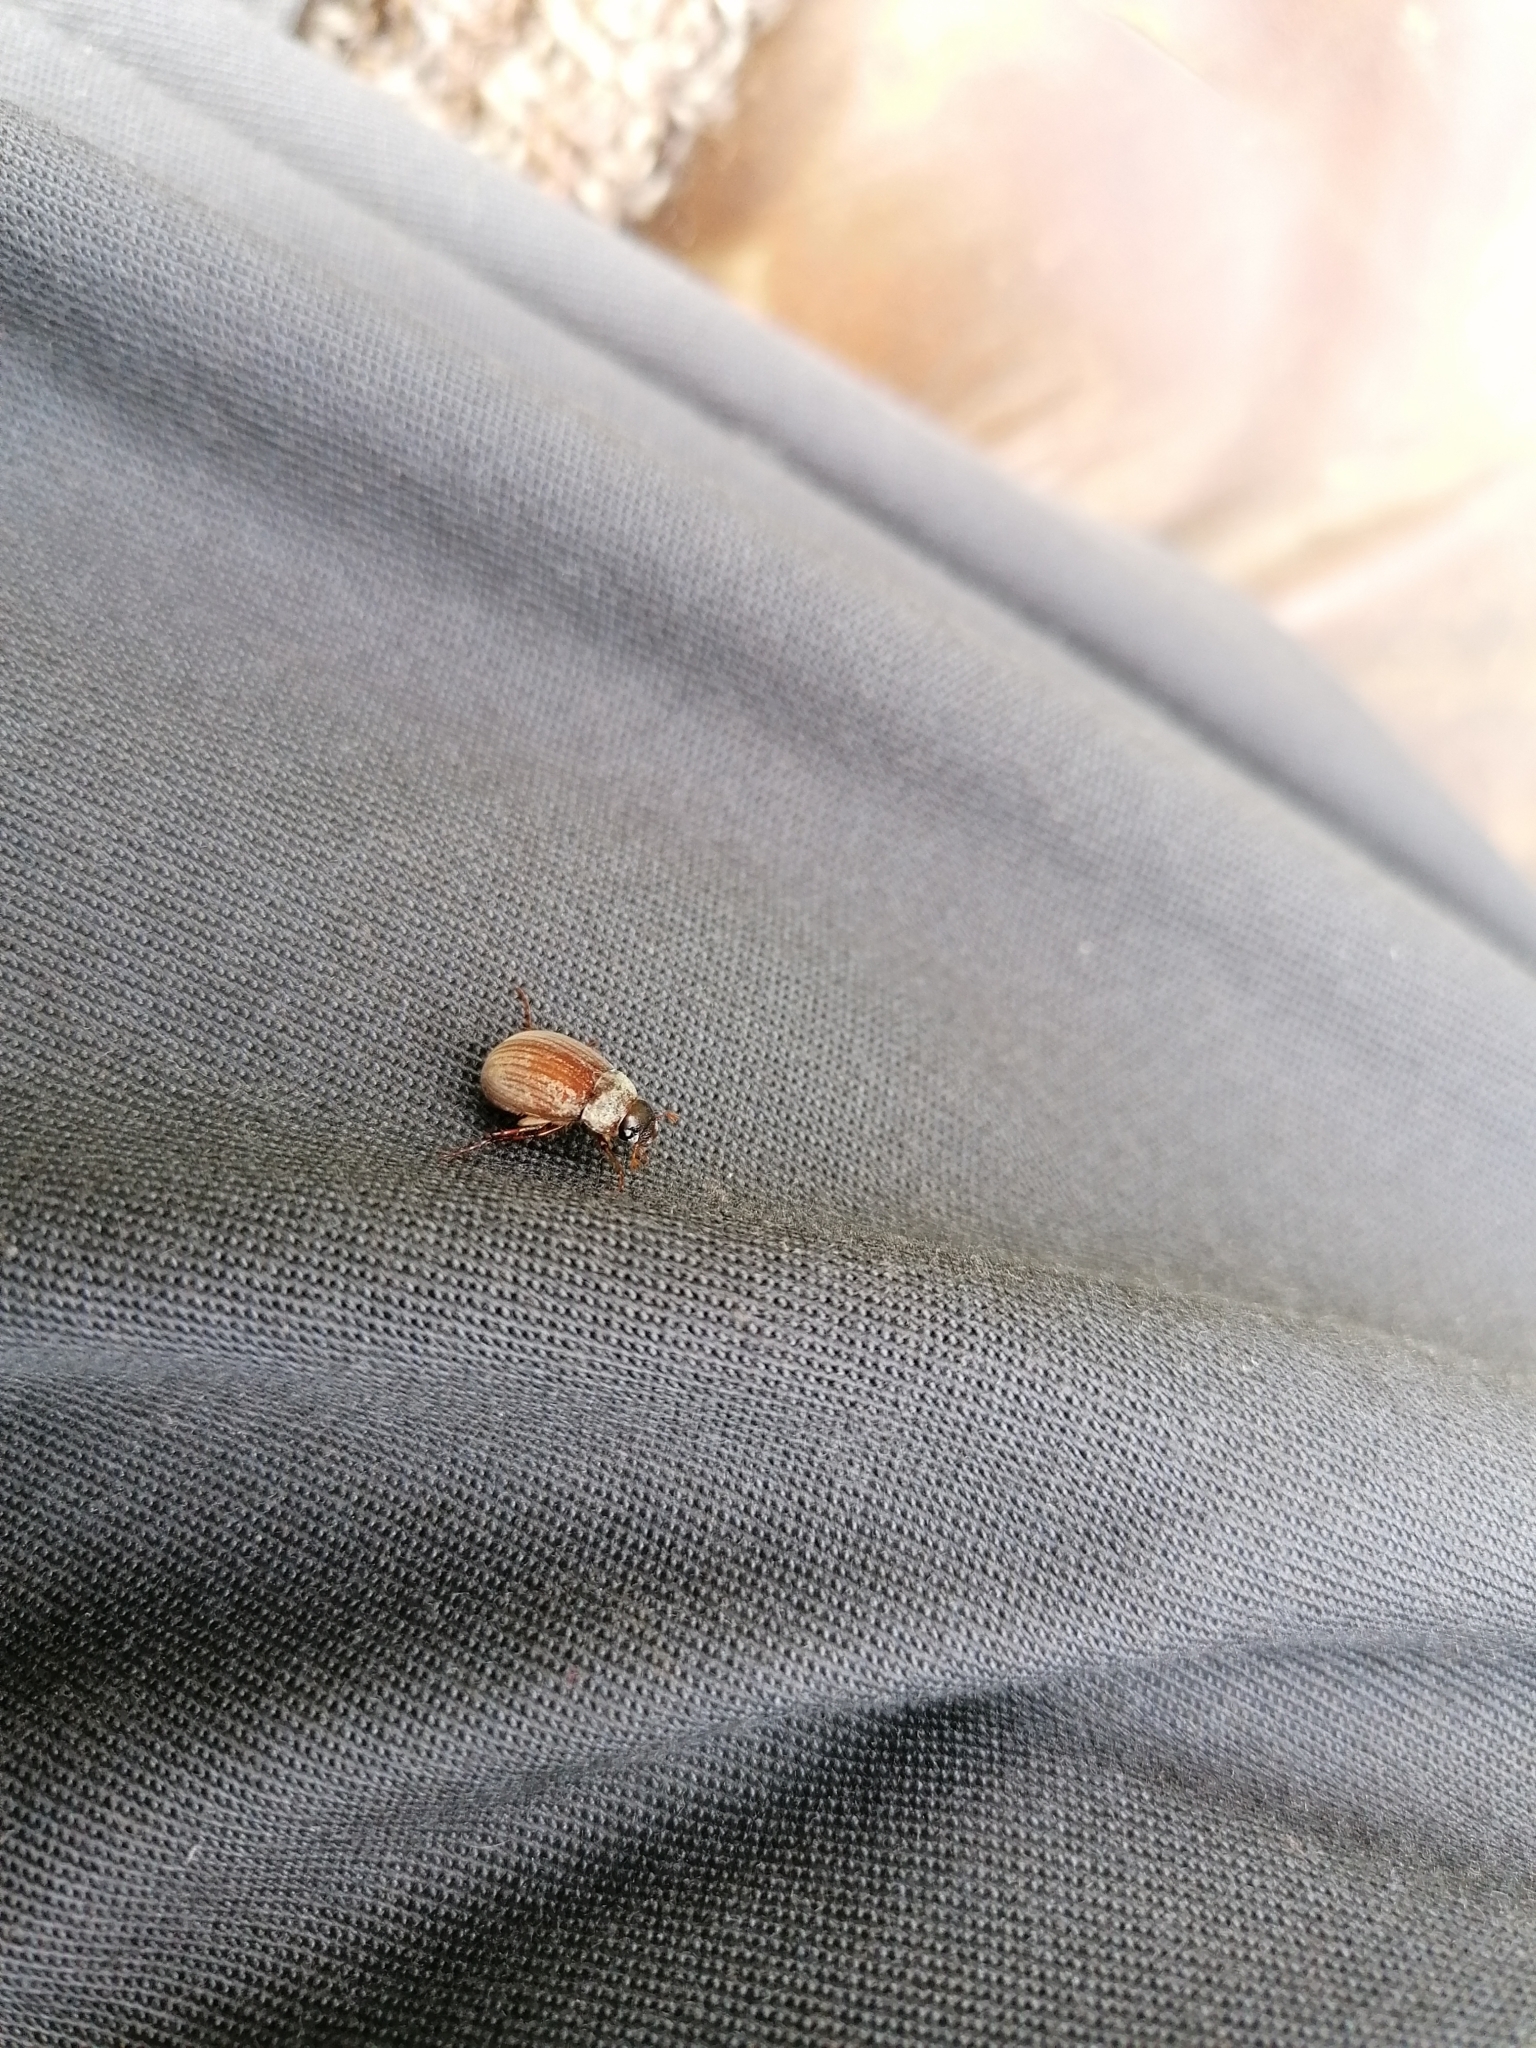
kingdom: Animalia
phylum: Arthropoda
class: Insecta
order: Coleoptera
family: Scarabaeidae
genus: Maladera
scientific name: Maladera holosericea
